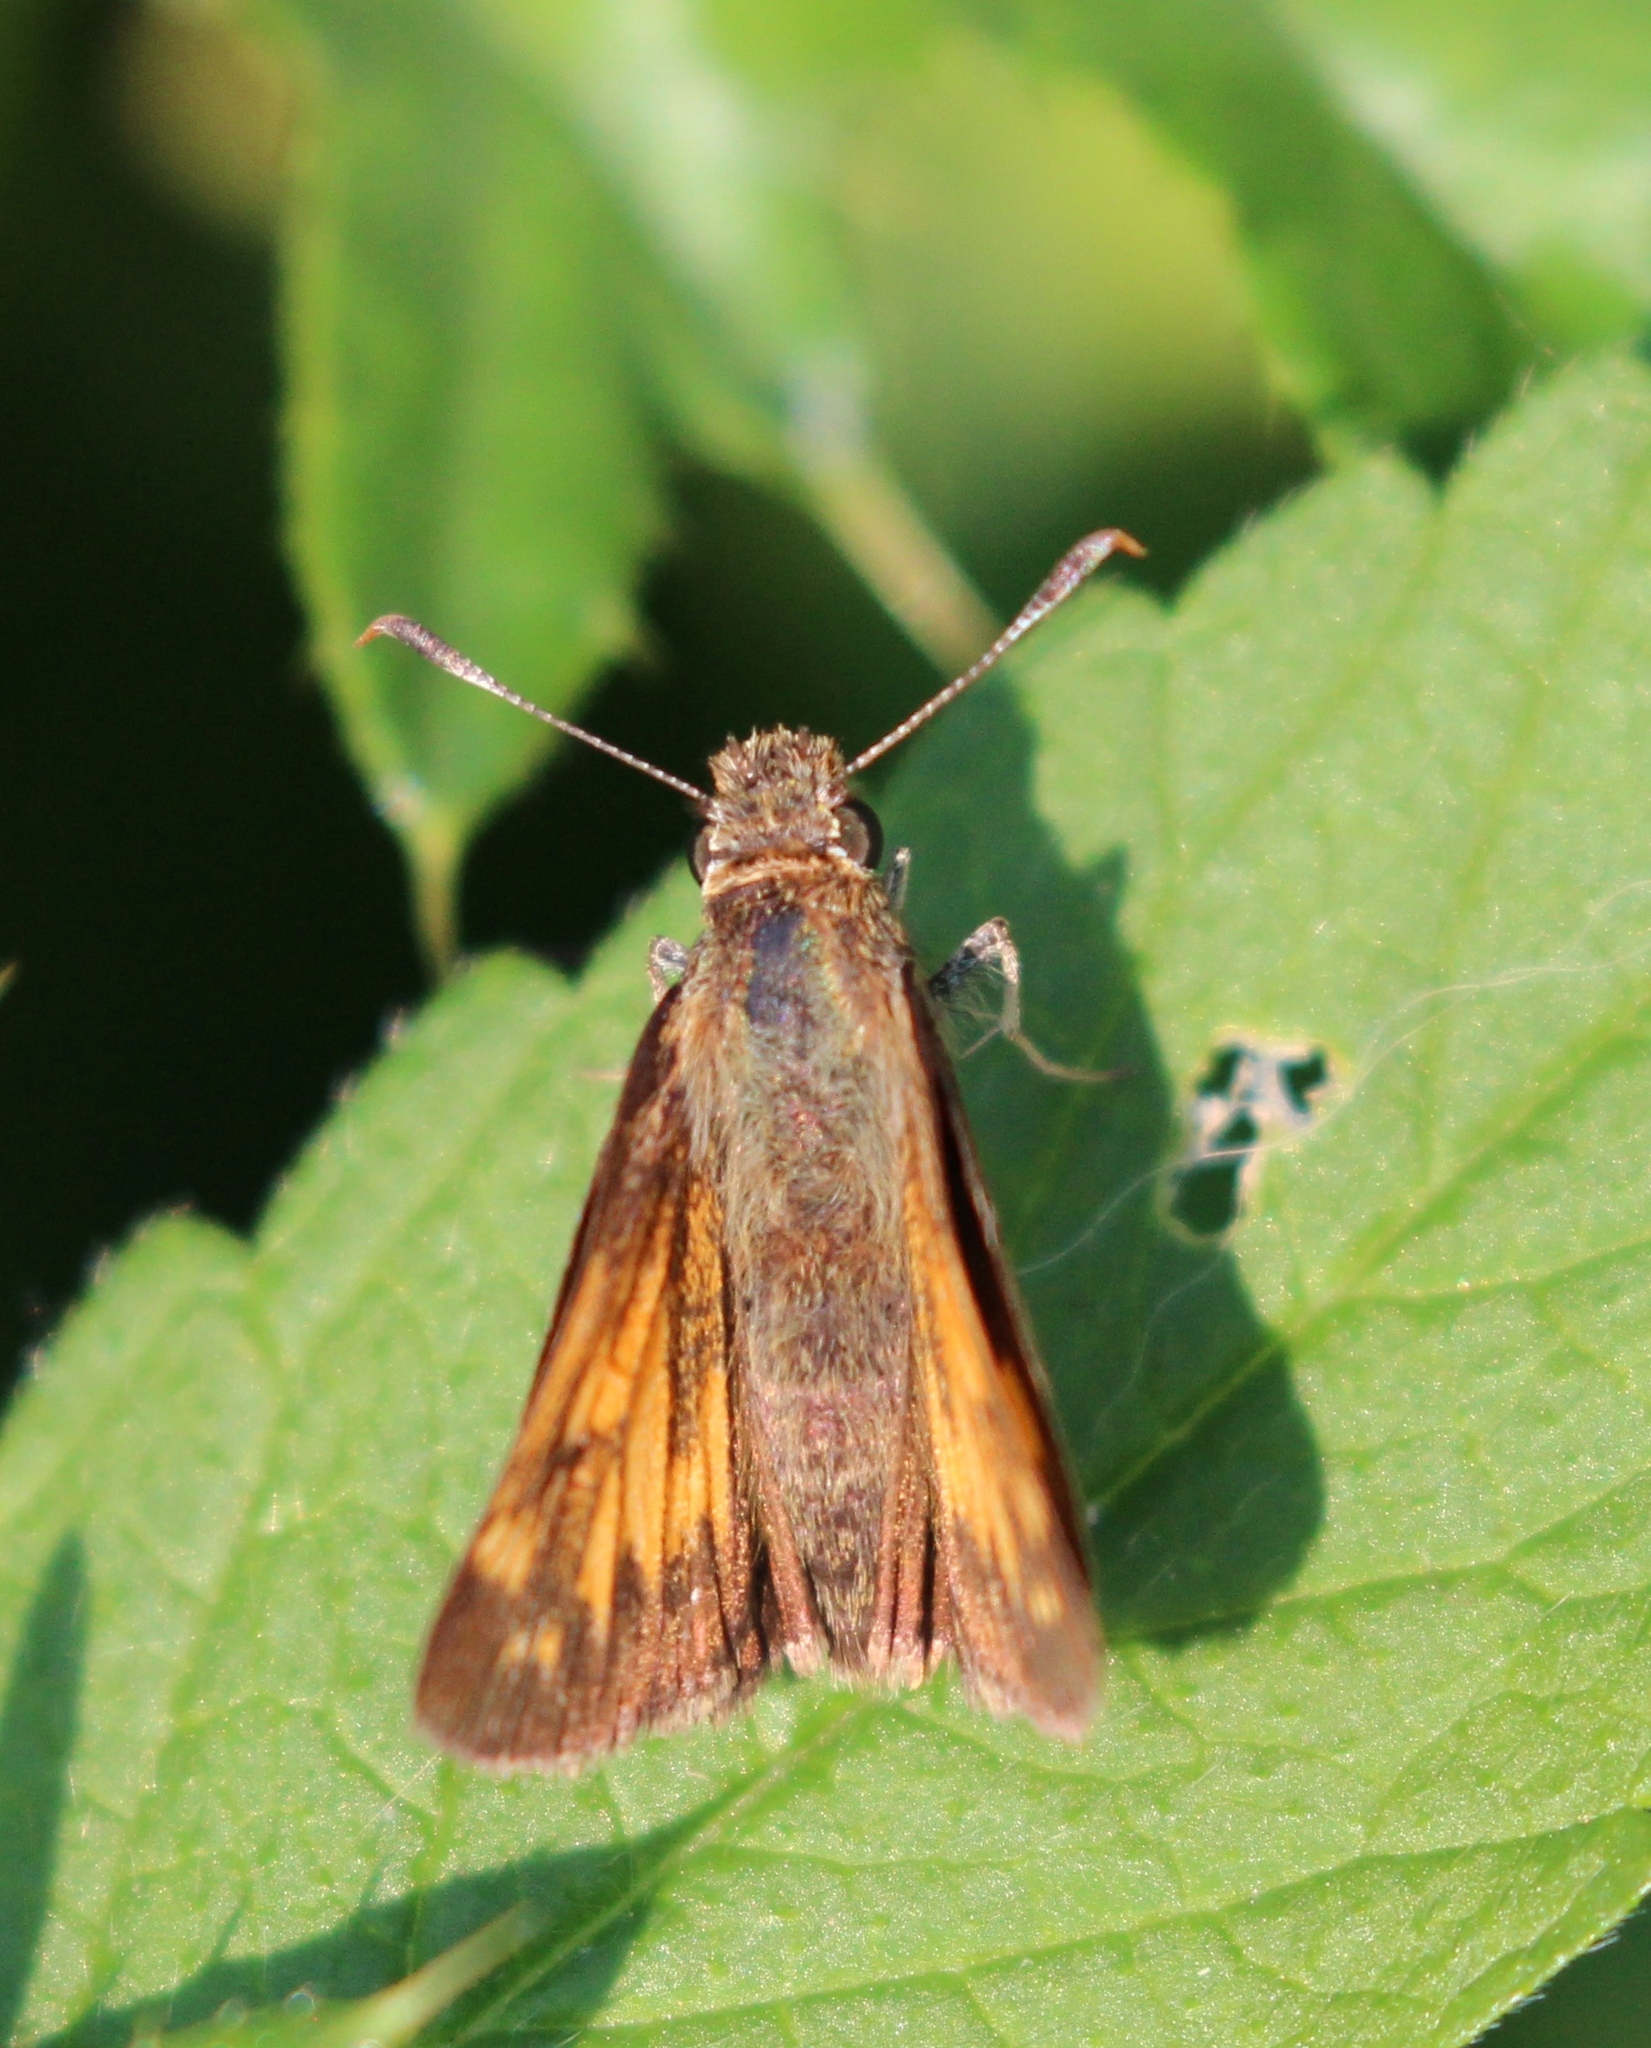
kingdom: Animalia
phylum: Arthropoda
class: Insecta
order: Lepidoptera
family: Hesperiidae
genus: Lon
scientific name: Lon hobomok
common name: Hobomok skipper
